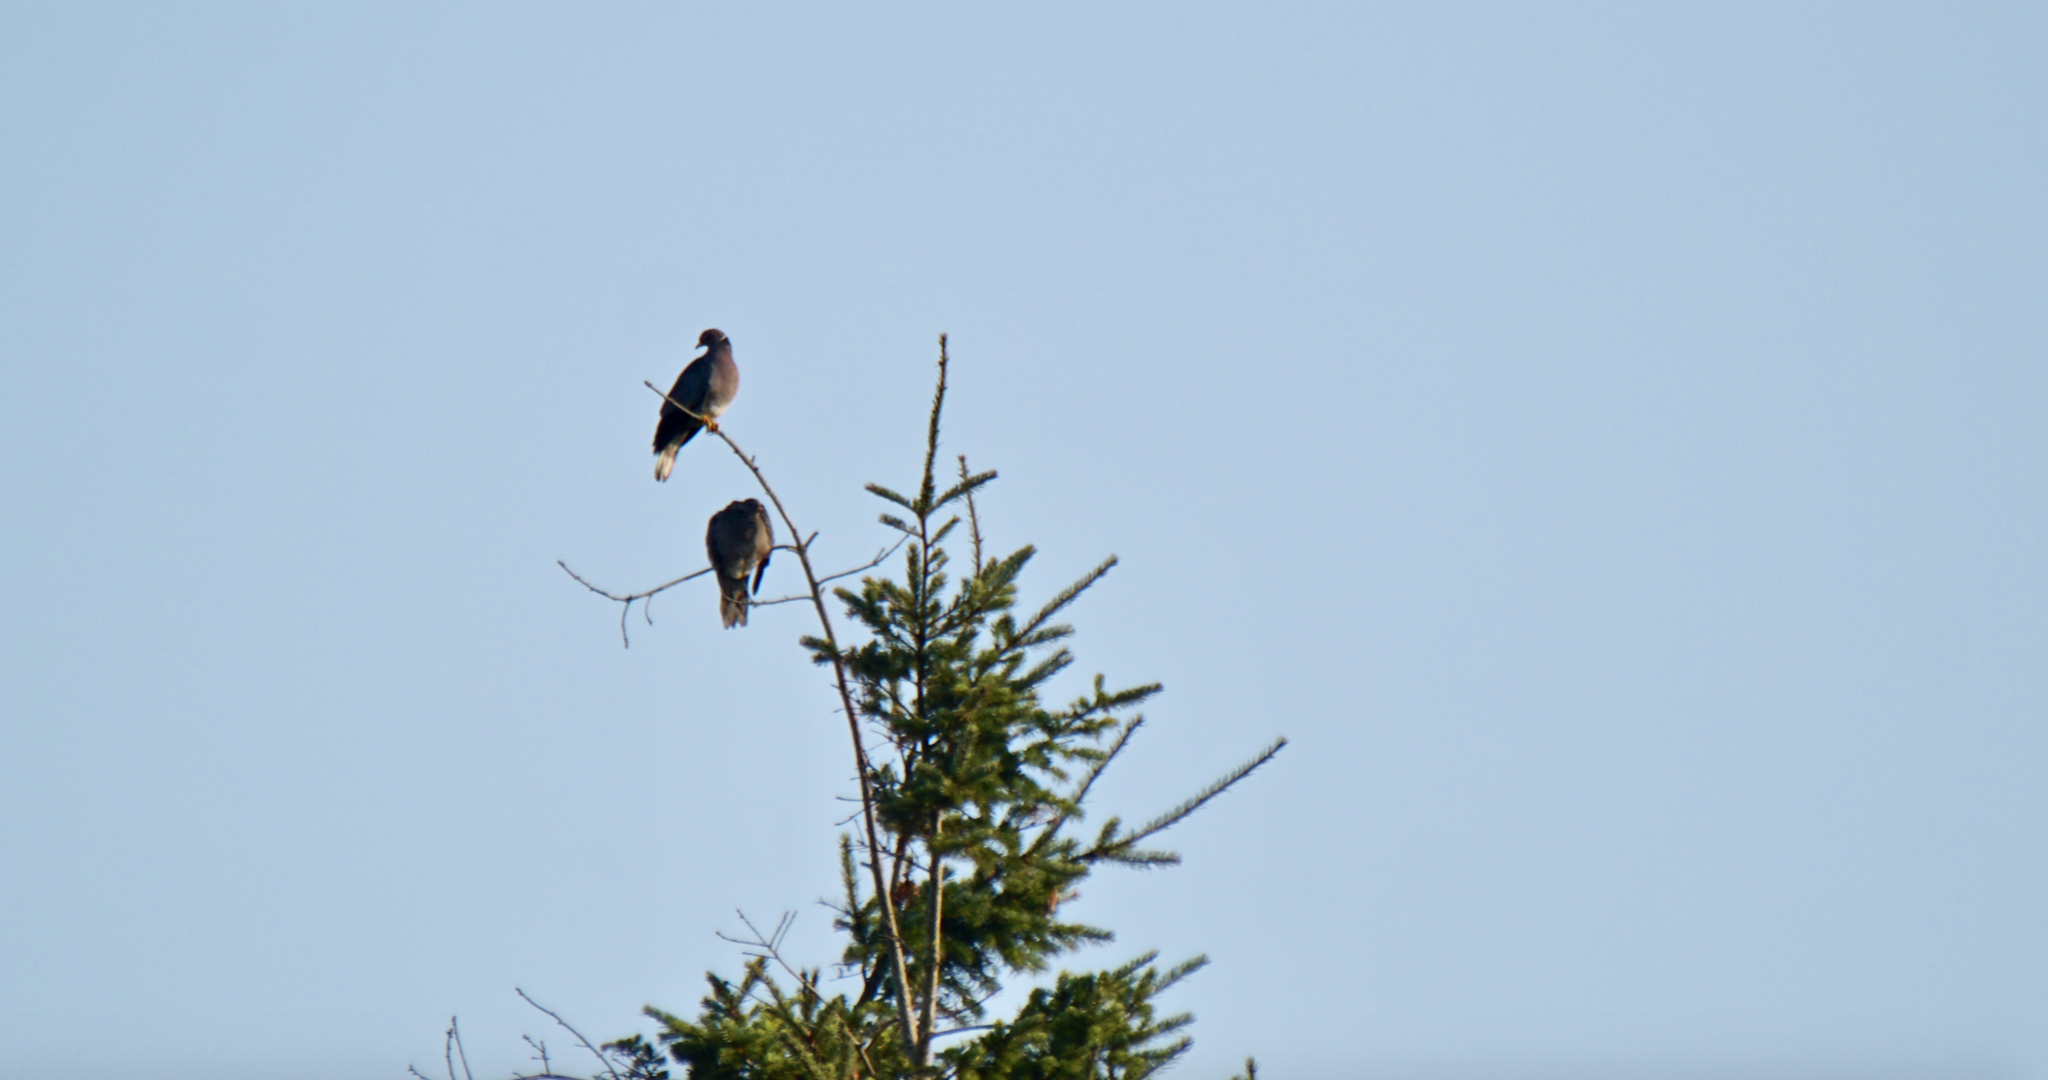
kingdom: Animalia
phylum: Chordata
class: Aves
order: Columbiformes
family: Columbidae
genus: Patagioenas
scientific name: Patagioenas fasciata
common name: Band-tailed pigeon
